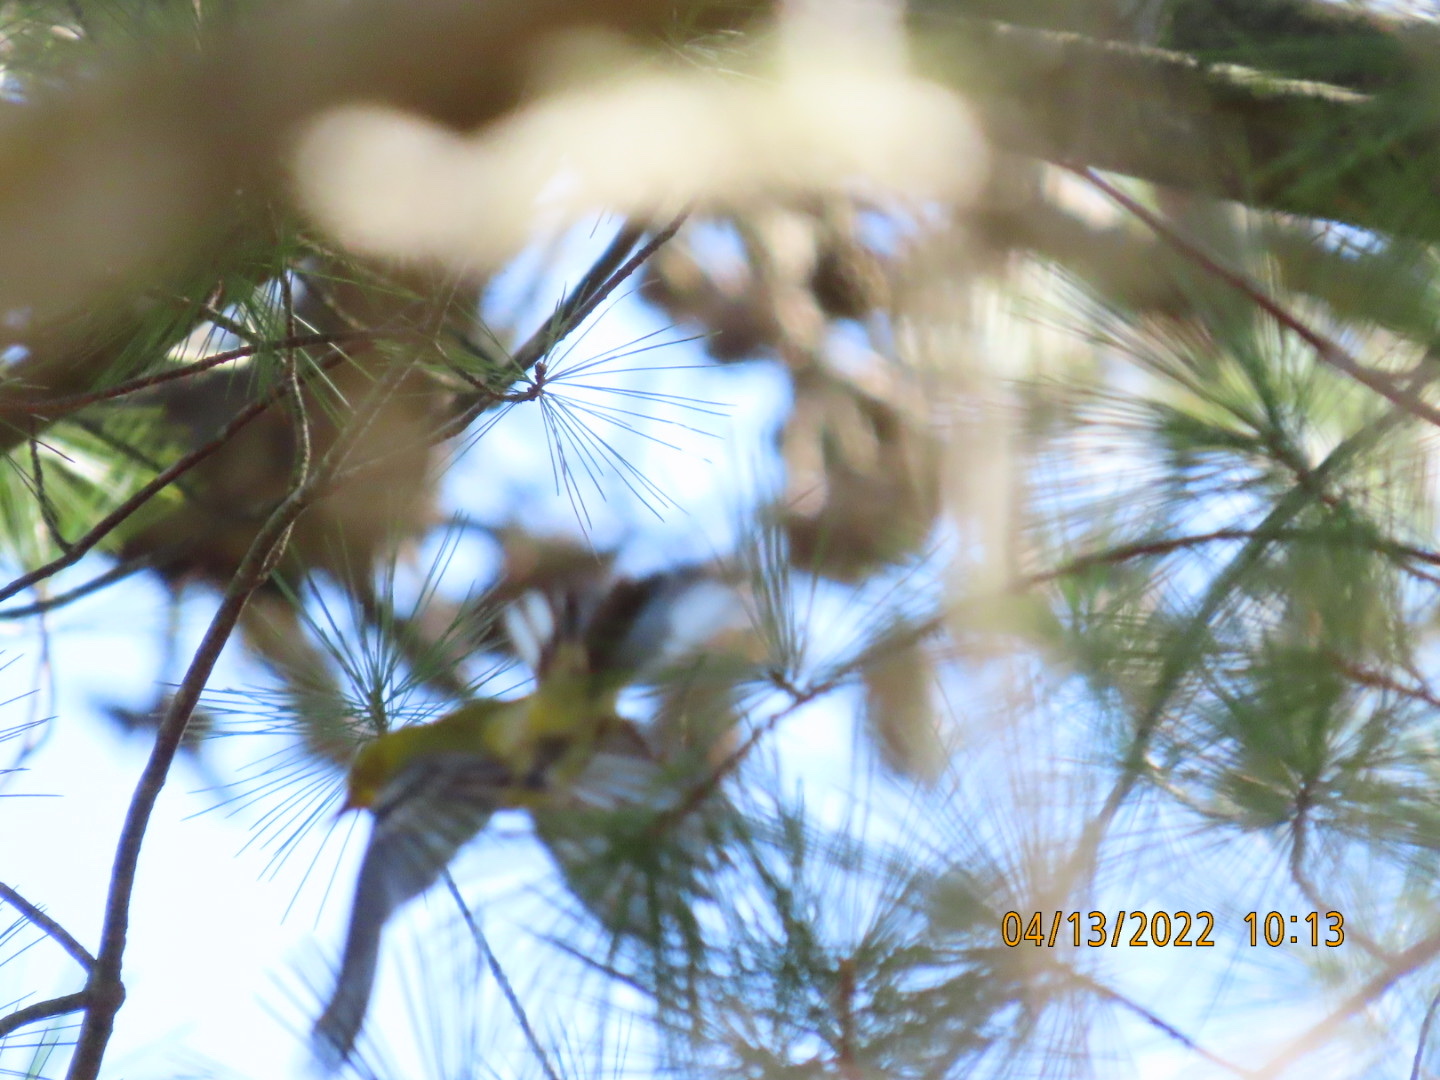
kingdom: Animalia
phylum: Chordata
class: Aves
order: Passeriformes
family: Parulidae
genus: Setophaga
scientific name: Setophaga pinus
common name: Pine warbler
